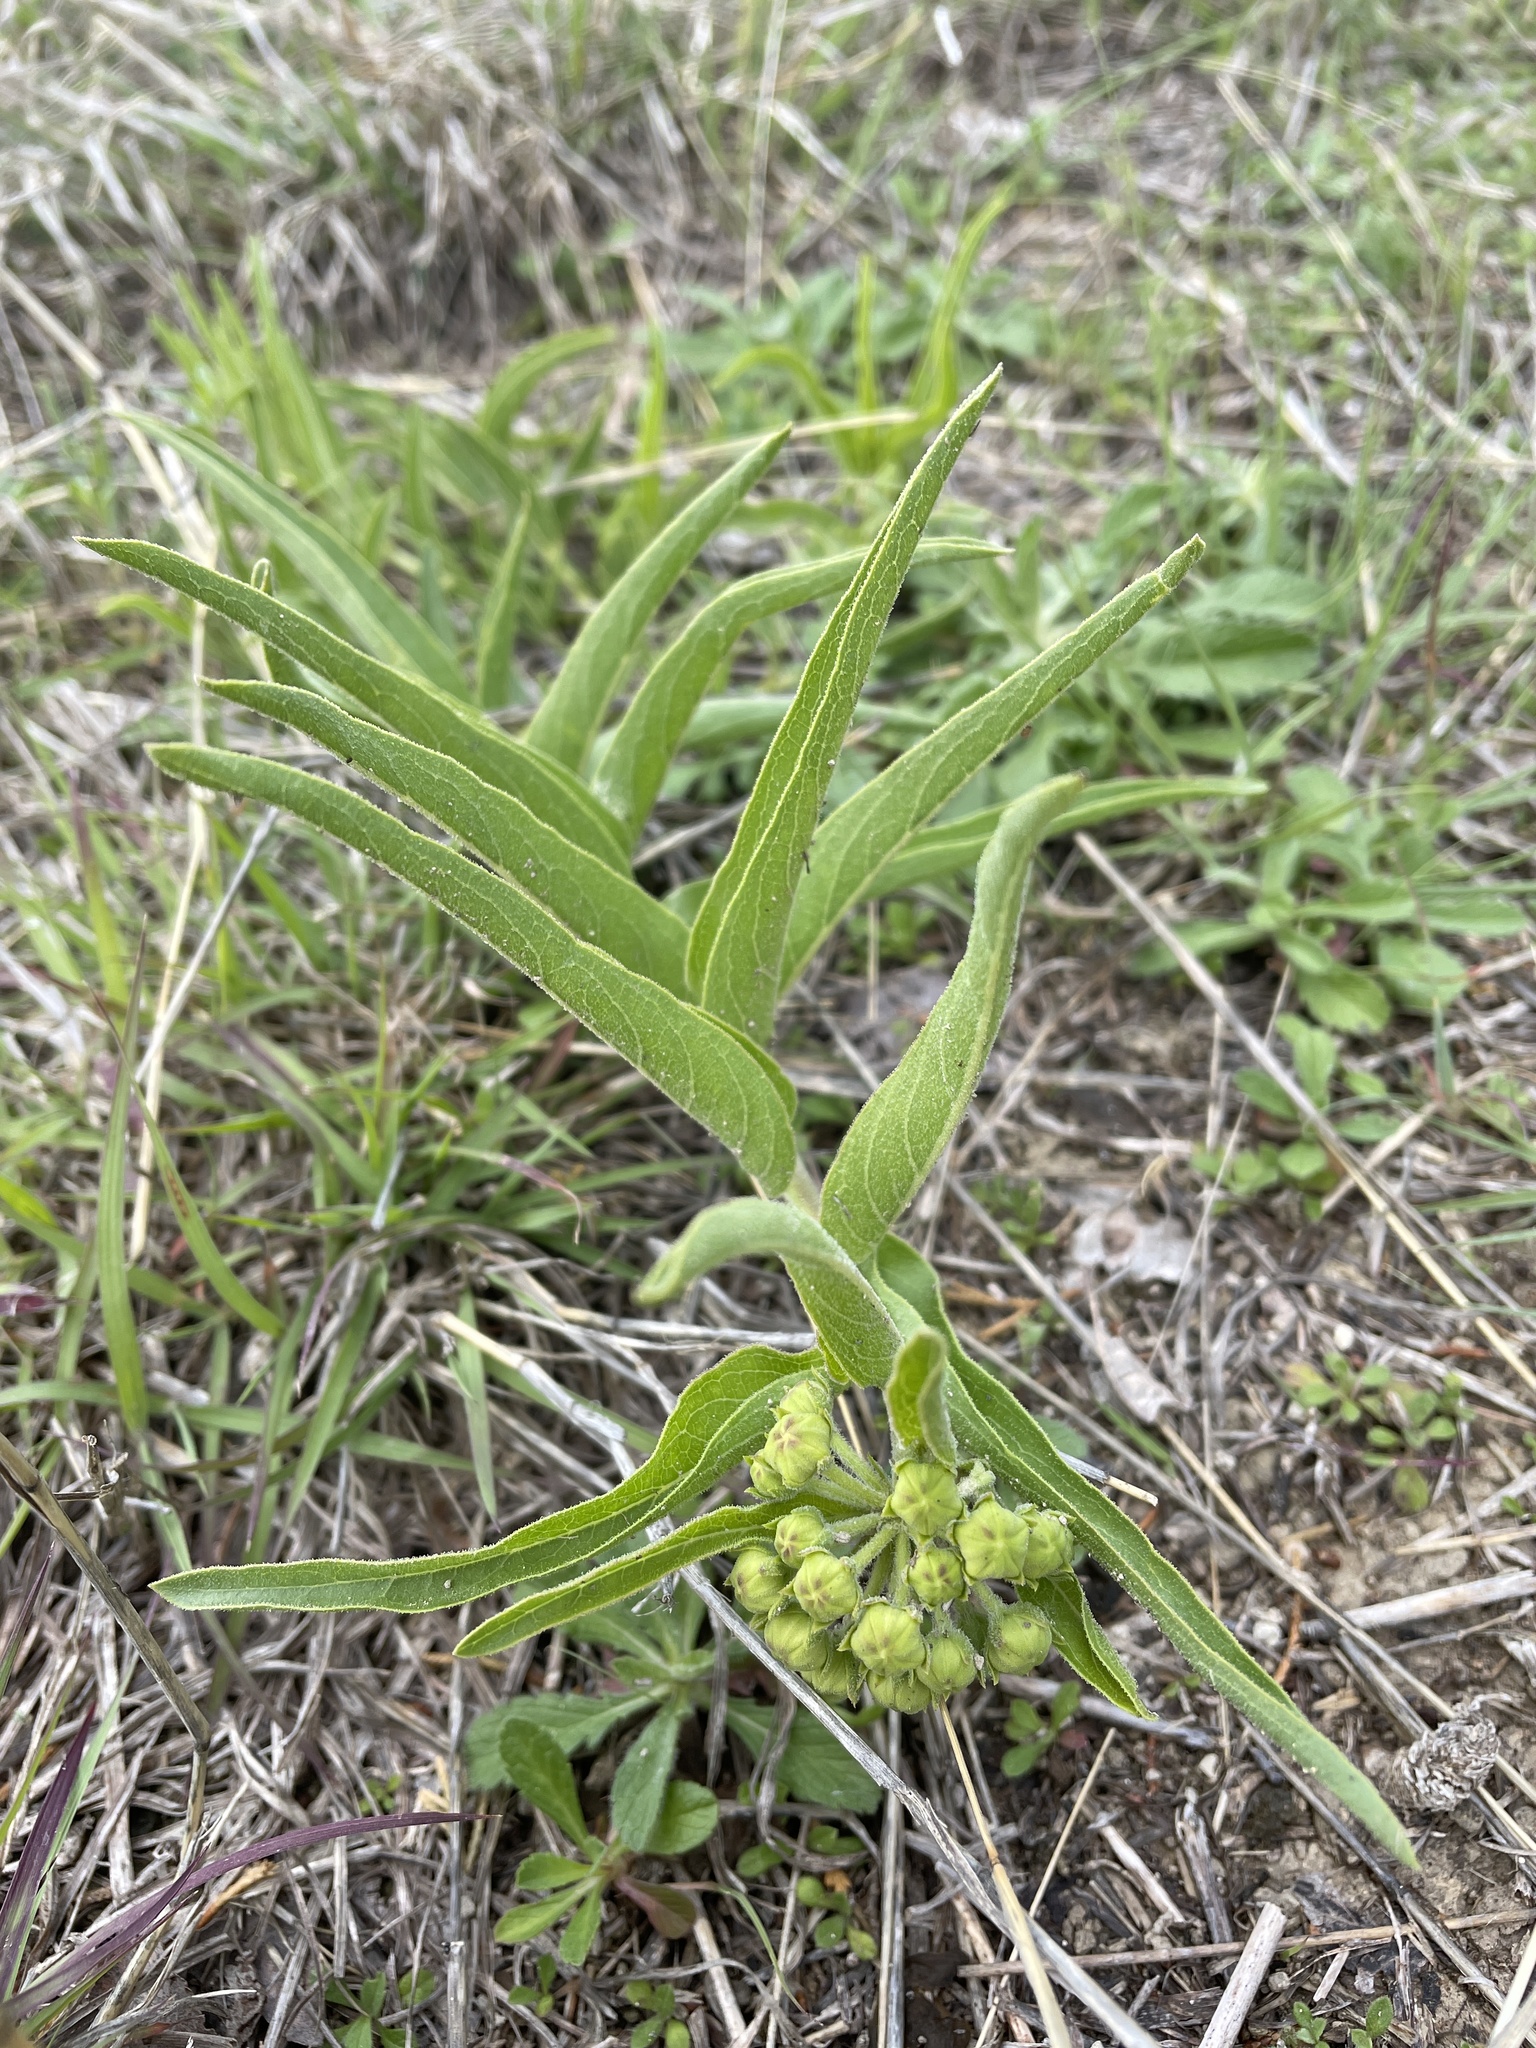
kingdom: Plantae
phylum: Tracheophyta
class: Magnoliopsida
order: Gentianales
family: Apocynaceae
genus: Asclepias
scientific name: Asclepias asperula
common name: Antelope horns
